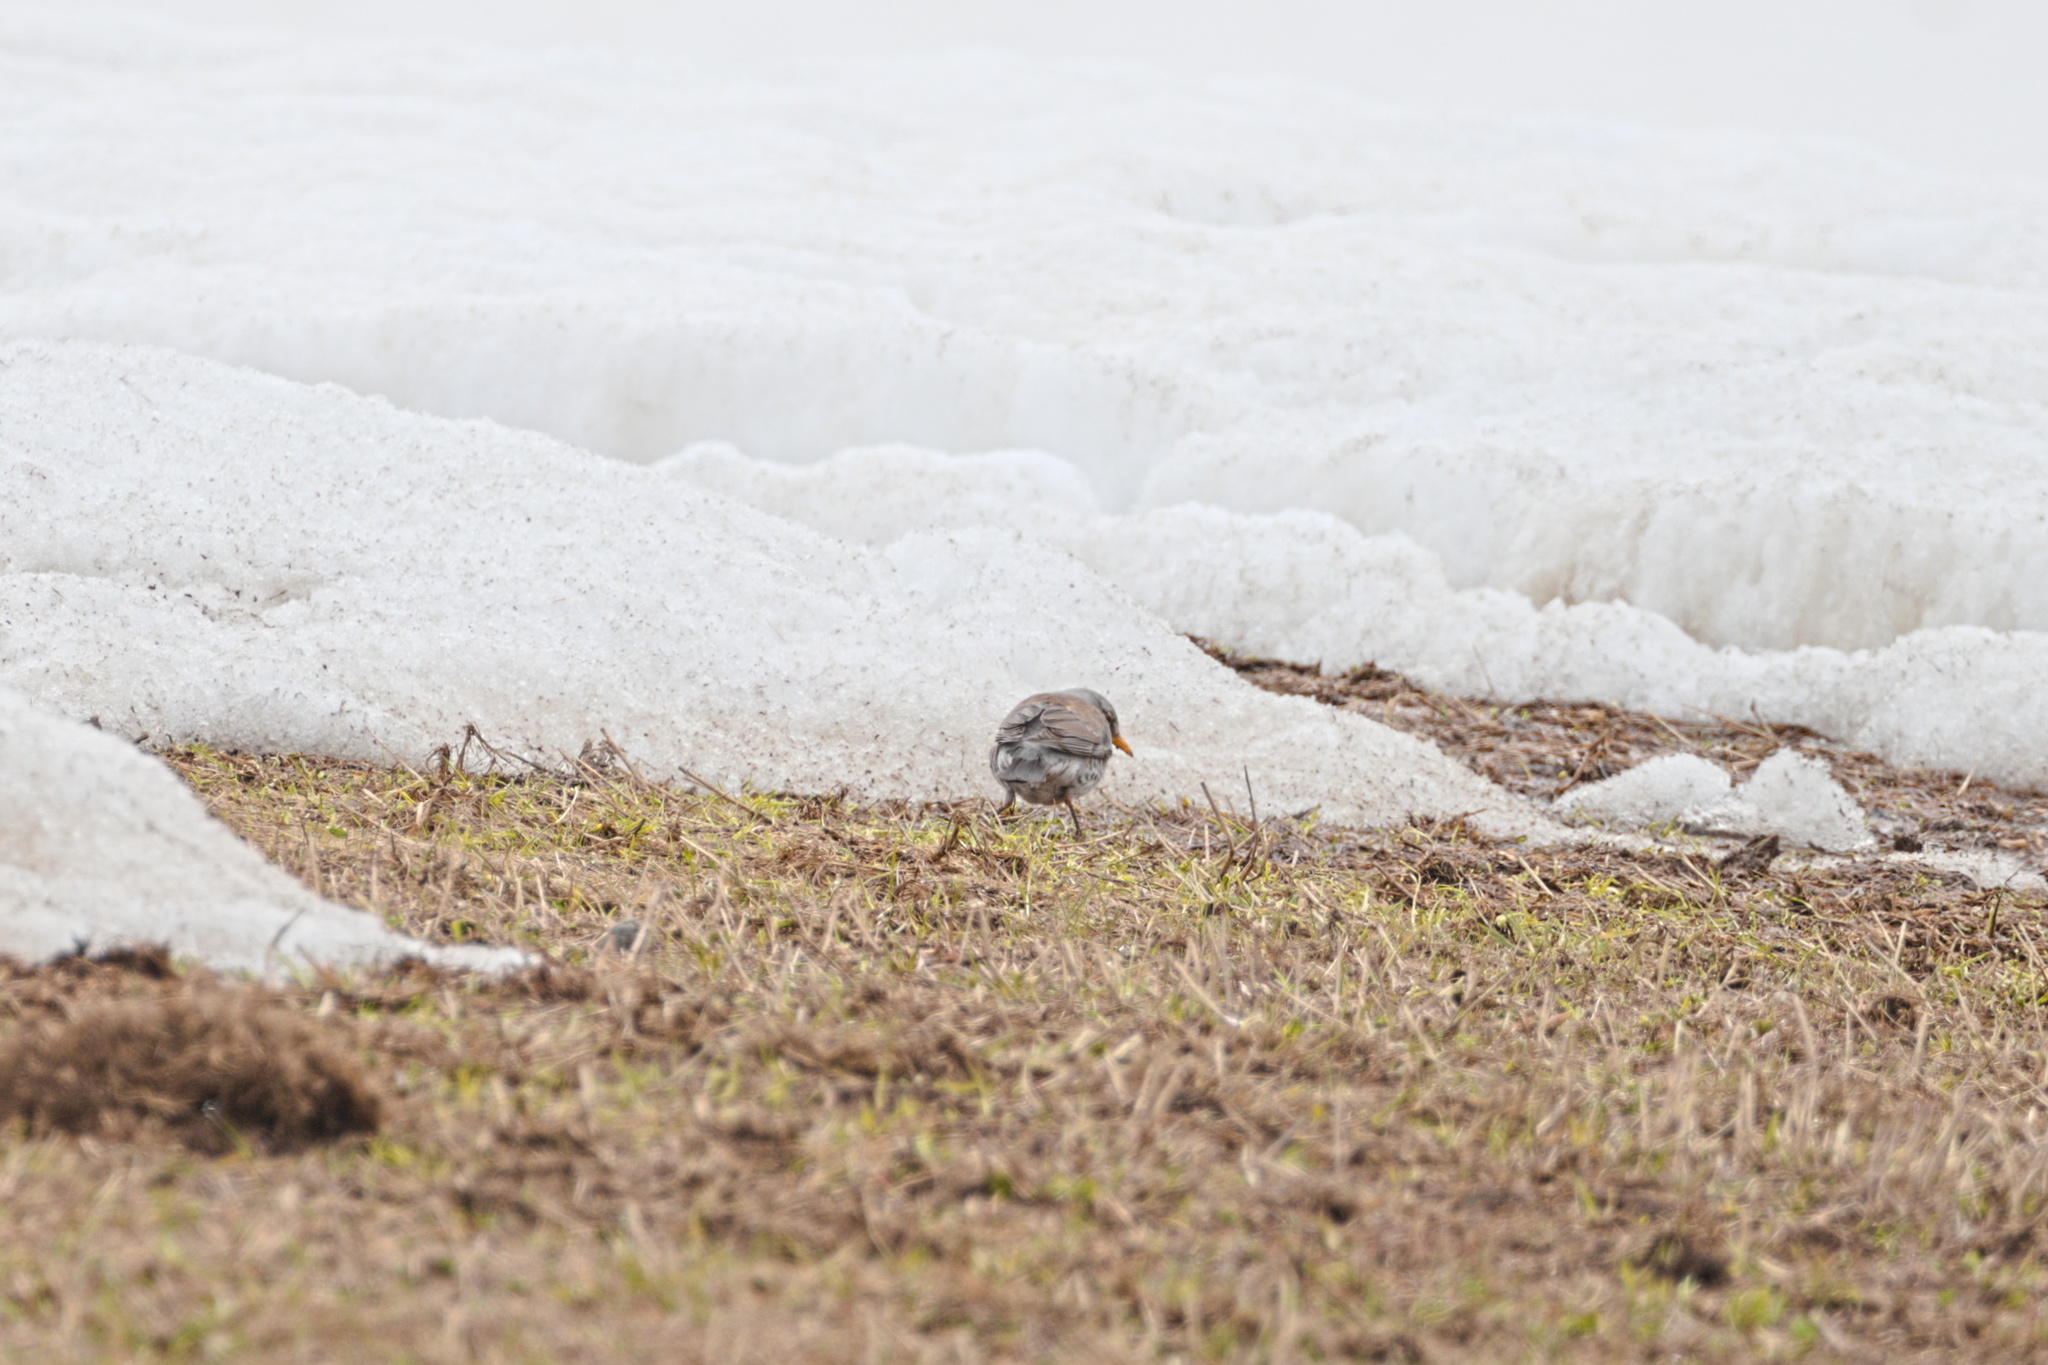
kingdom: Animalia
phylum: Chordata
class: Aves
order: Passeriformes
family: Turdidae
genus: Turdus
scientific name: Turdus pilaris
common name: Fieldfare
